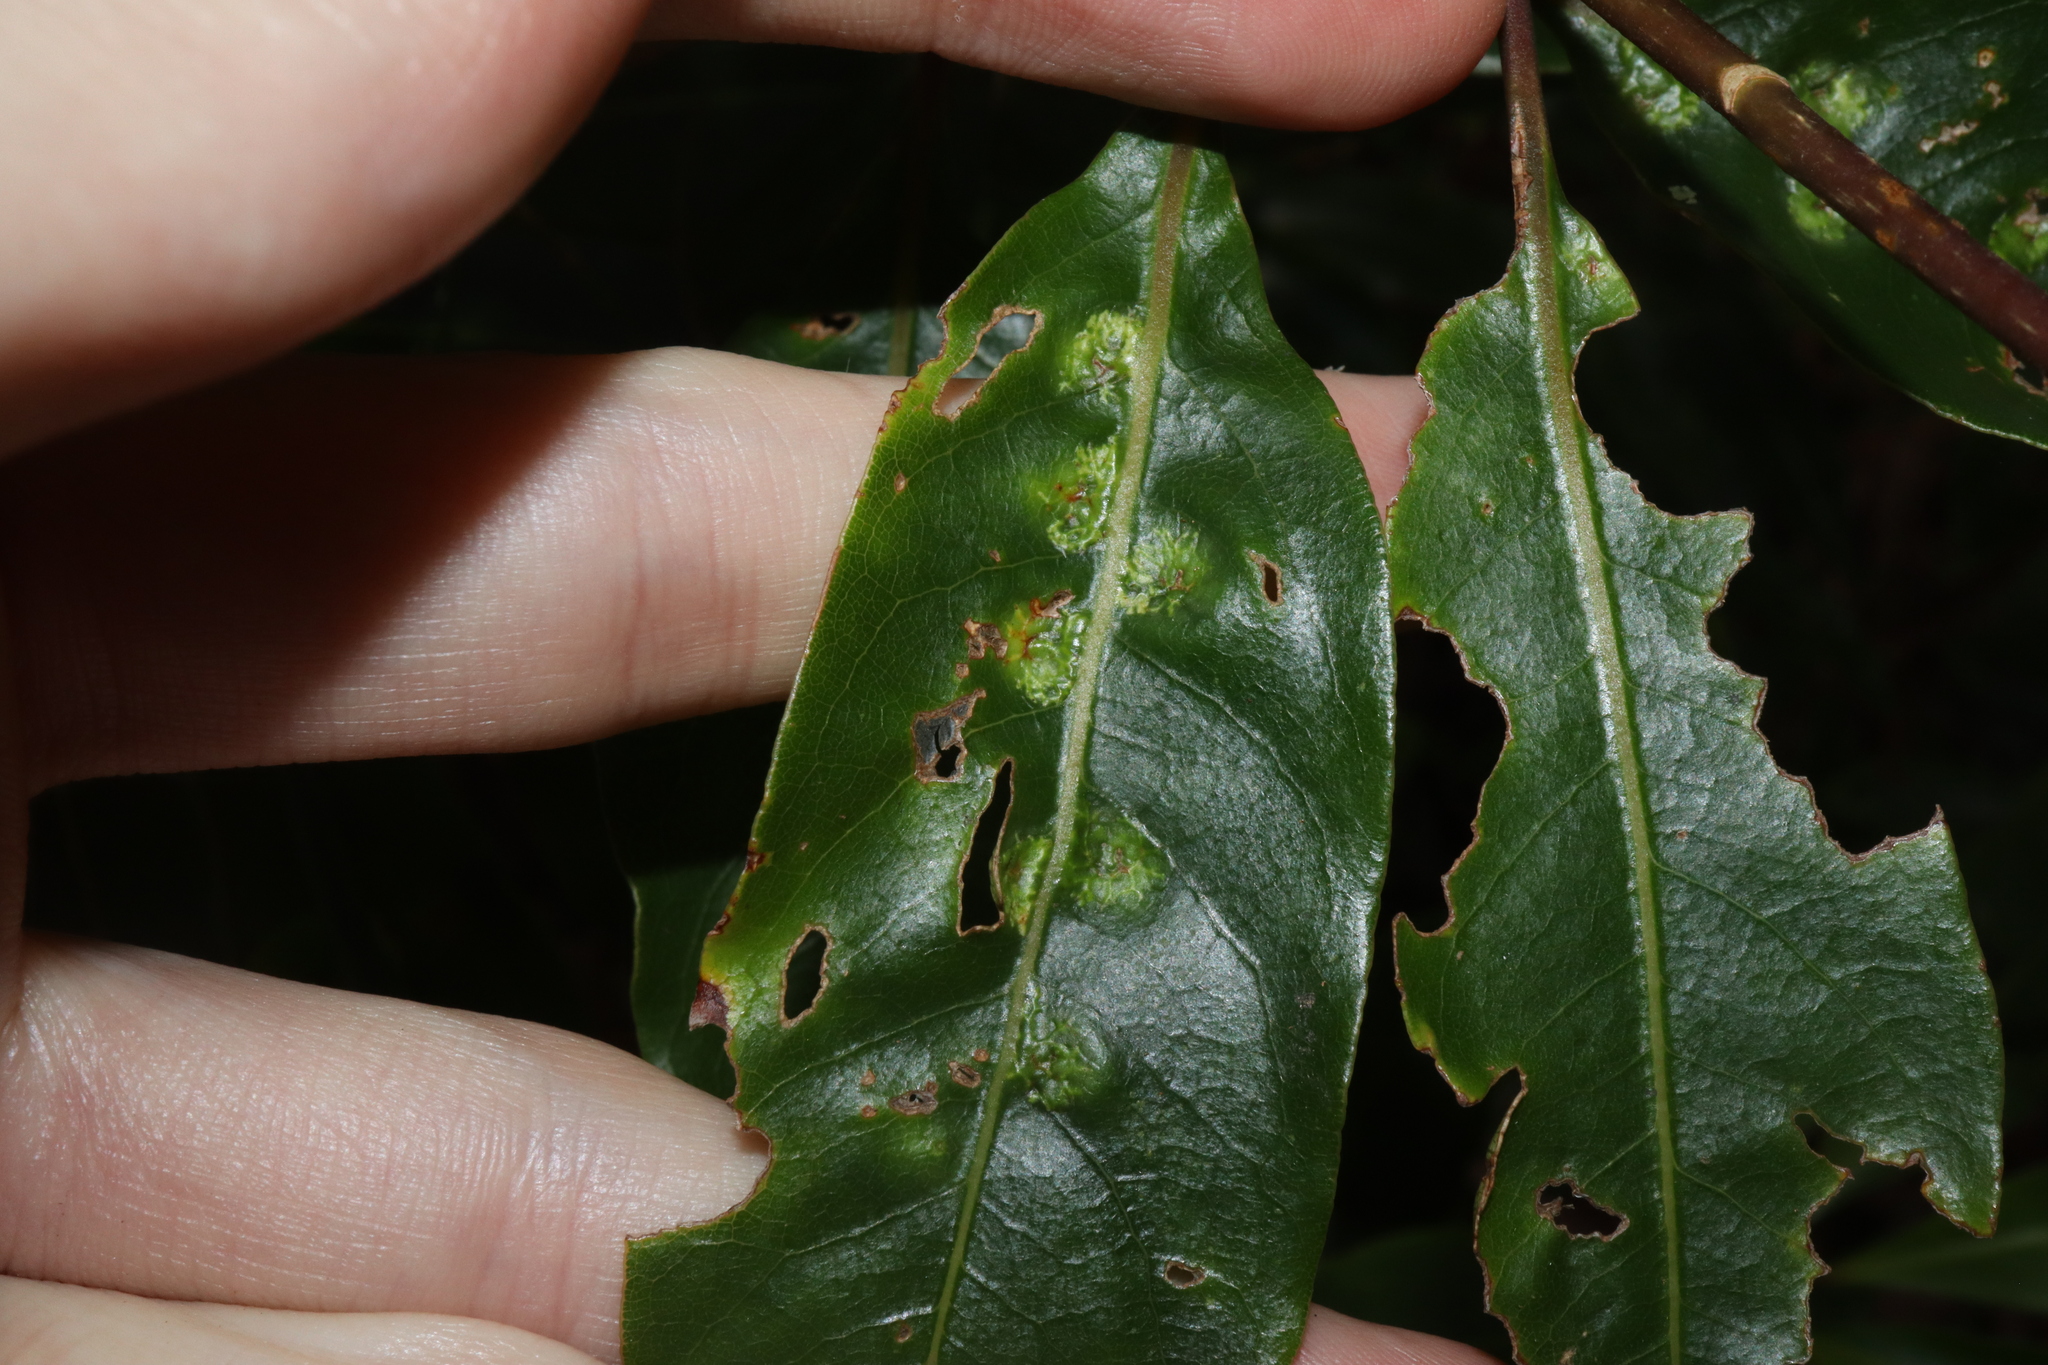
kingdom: Animalia
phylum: Arthropoda
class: Insecta
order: Diptera
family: Agromyzidae
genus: Phytoliriomyza
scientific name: Phytoliriomyza pittosporophylli
